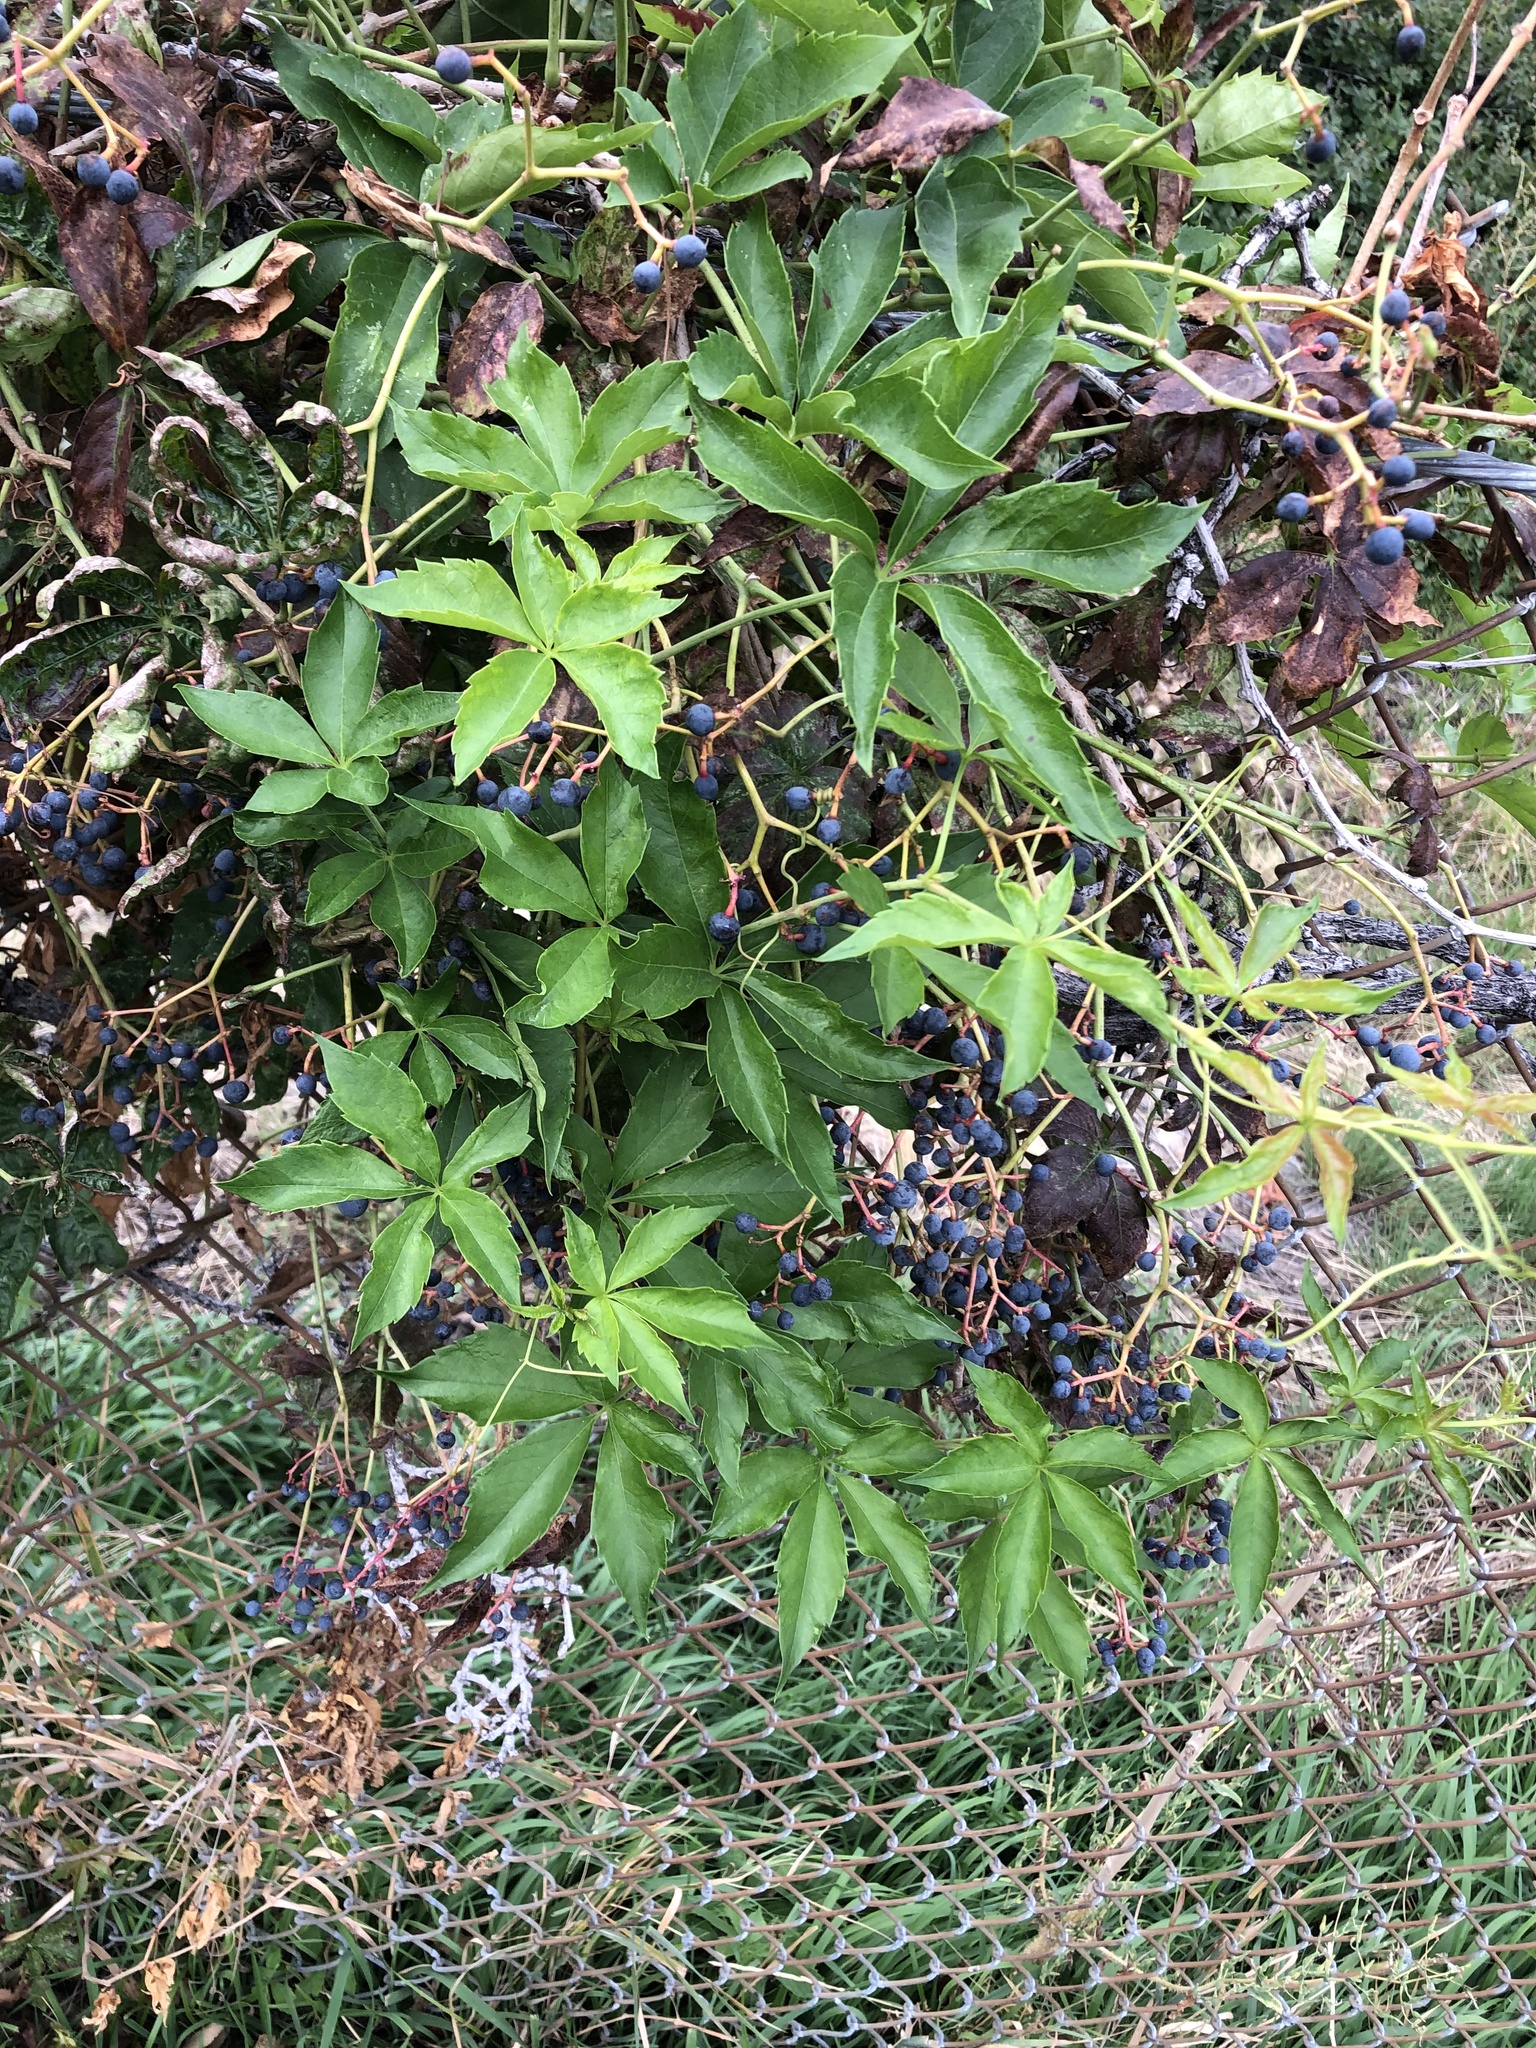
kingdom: Plantae
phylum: Tracheophyta
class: Magnoliopsida
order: Vitales
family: Vitaceae
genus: Parthenocissus
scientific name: Parthenocissus quinquefolia
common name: Virginia-creeper
